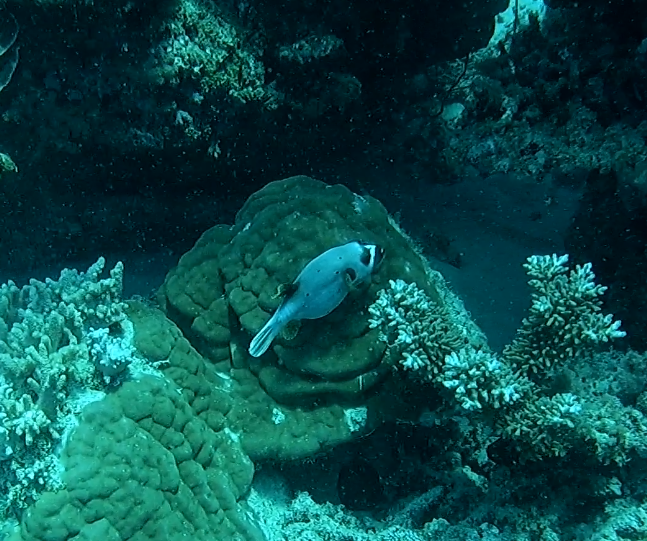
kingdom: Animalia
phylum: Chordata
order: Tetraodontiformes
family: Tetraodontidae
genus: Arothron
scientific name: Arothron nigropunctatus
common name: Black spotted blow fish
